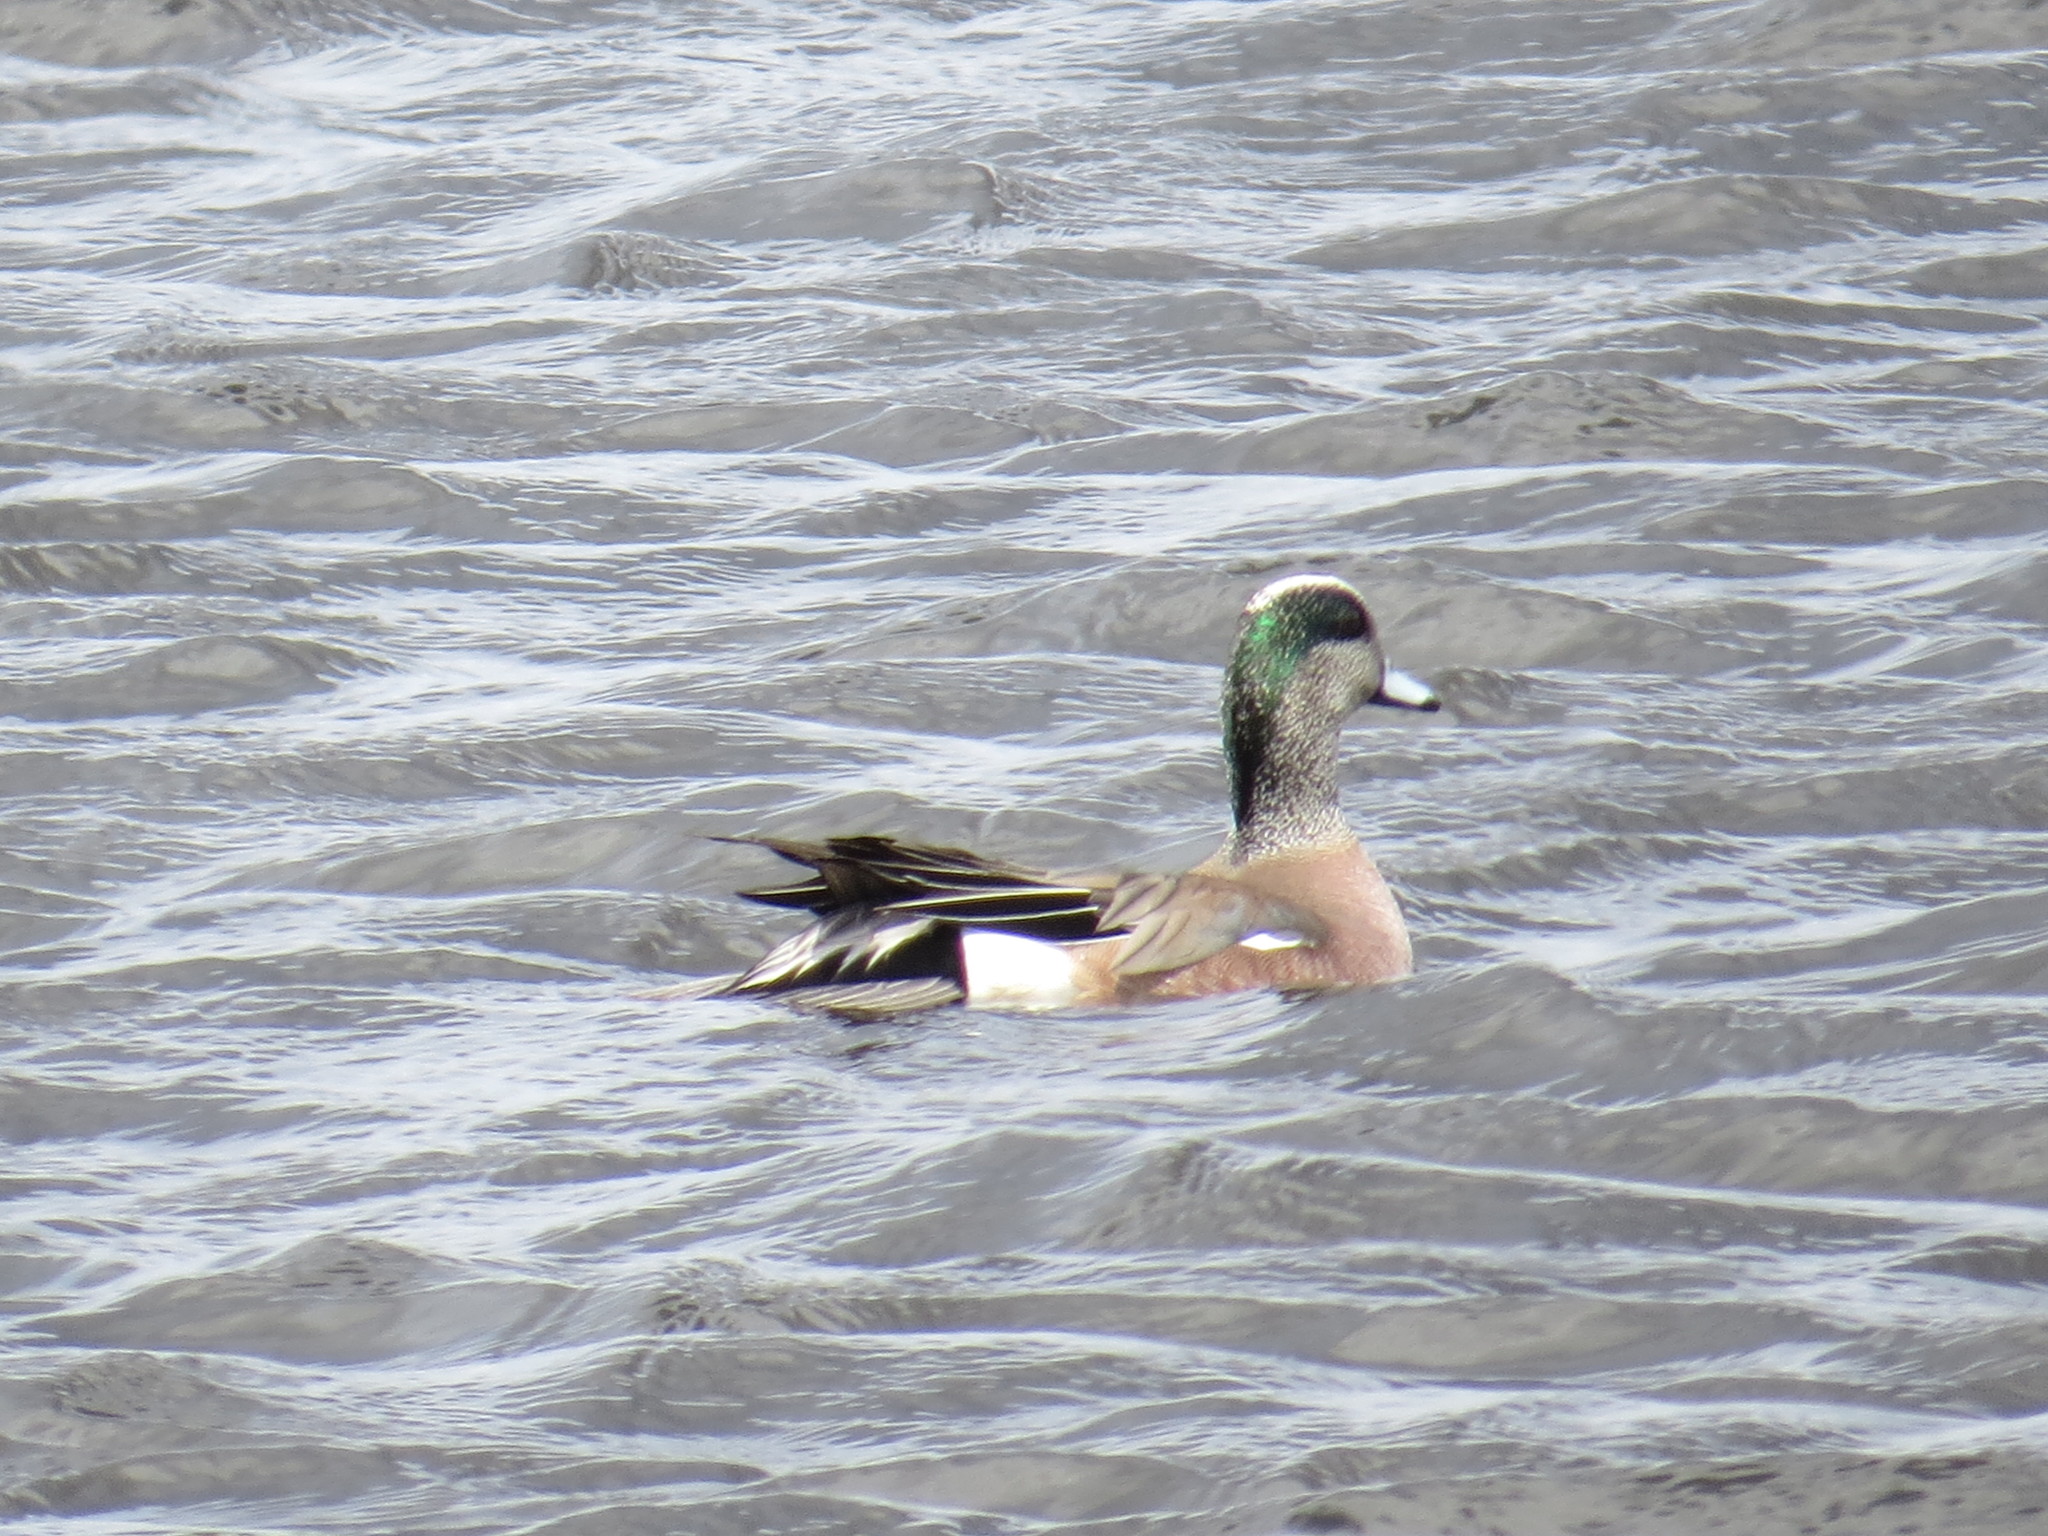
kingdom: Animalia
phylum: Chordata
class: Aves
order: Anseriformes
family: Anatidae
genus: Mareca
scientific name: Mareca americana
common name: American wigeon
